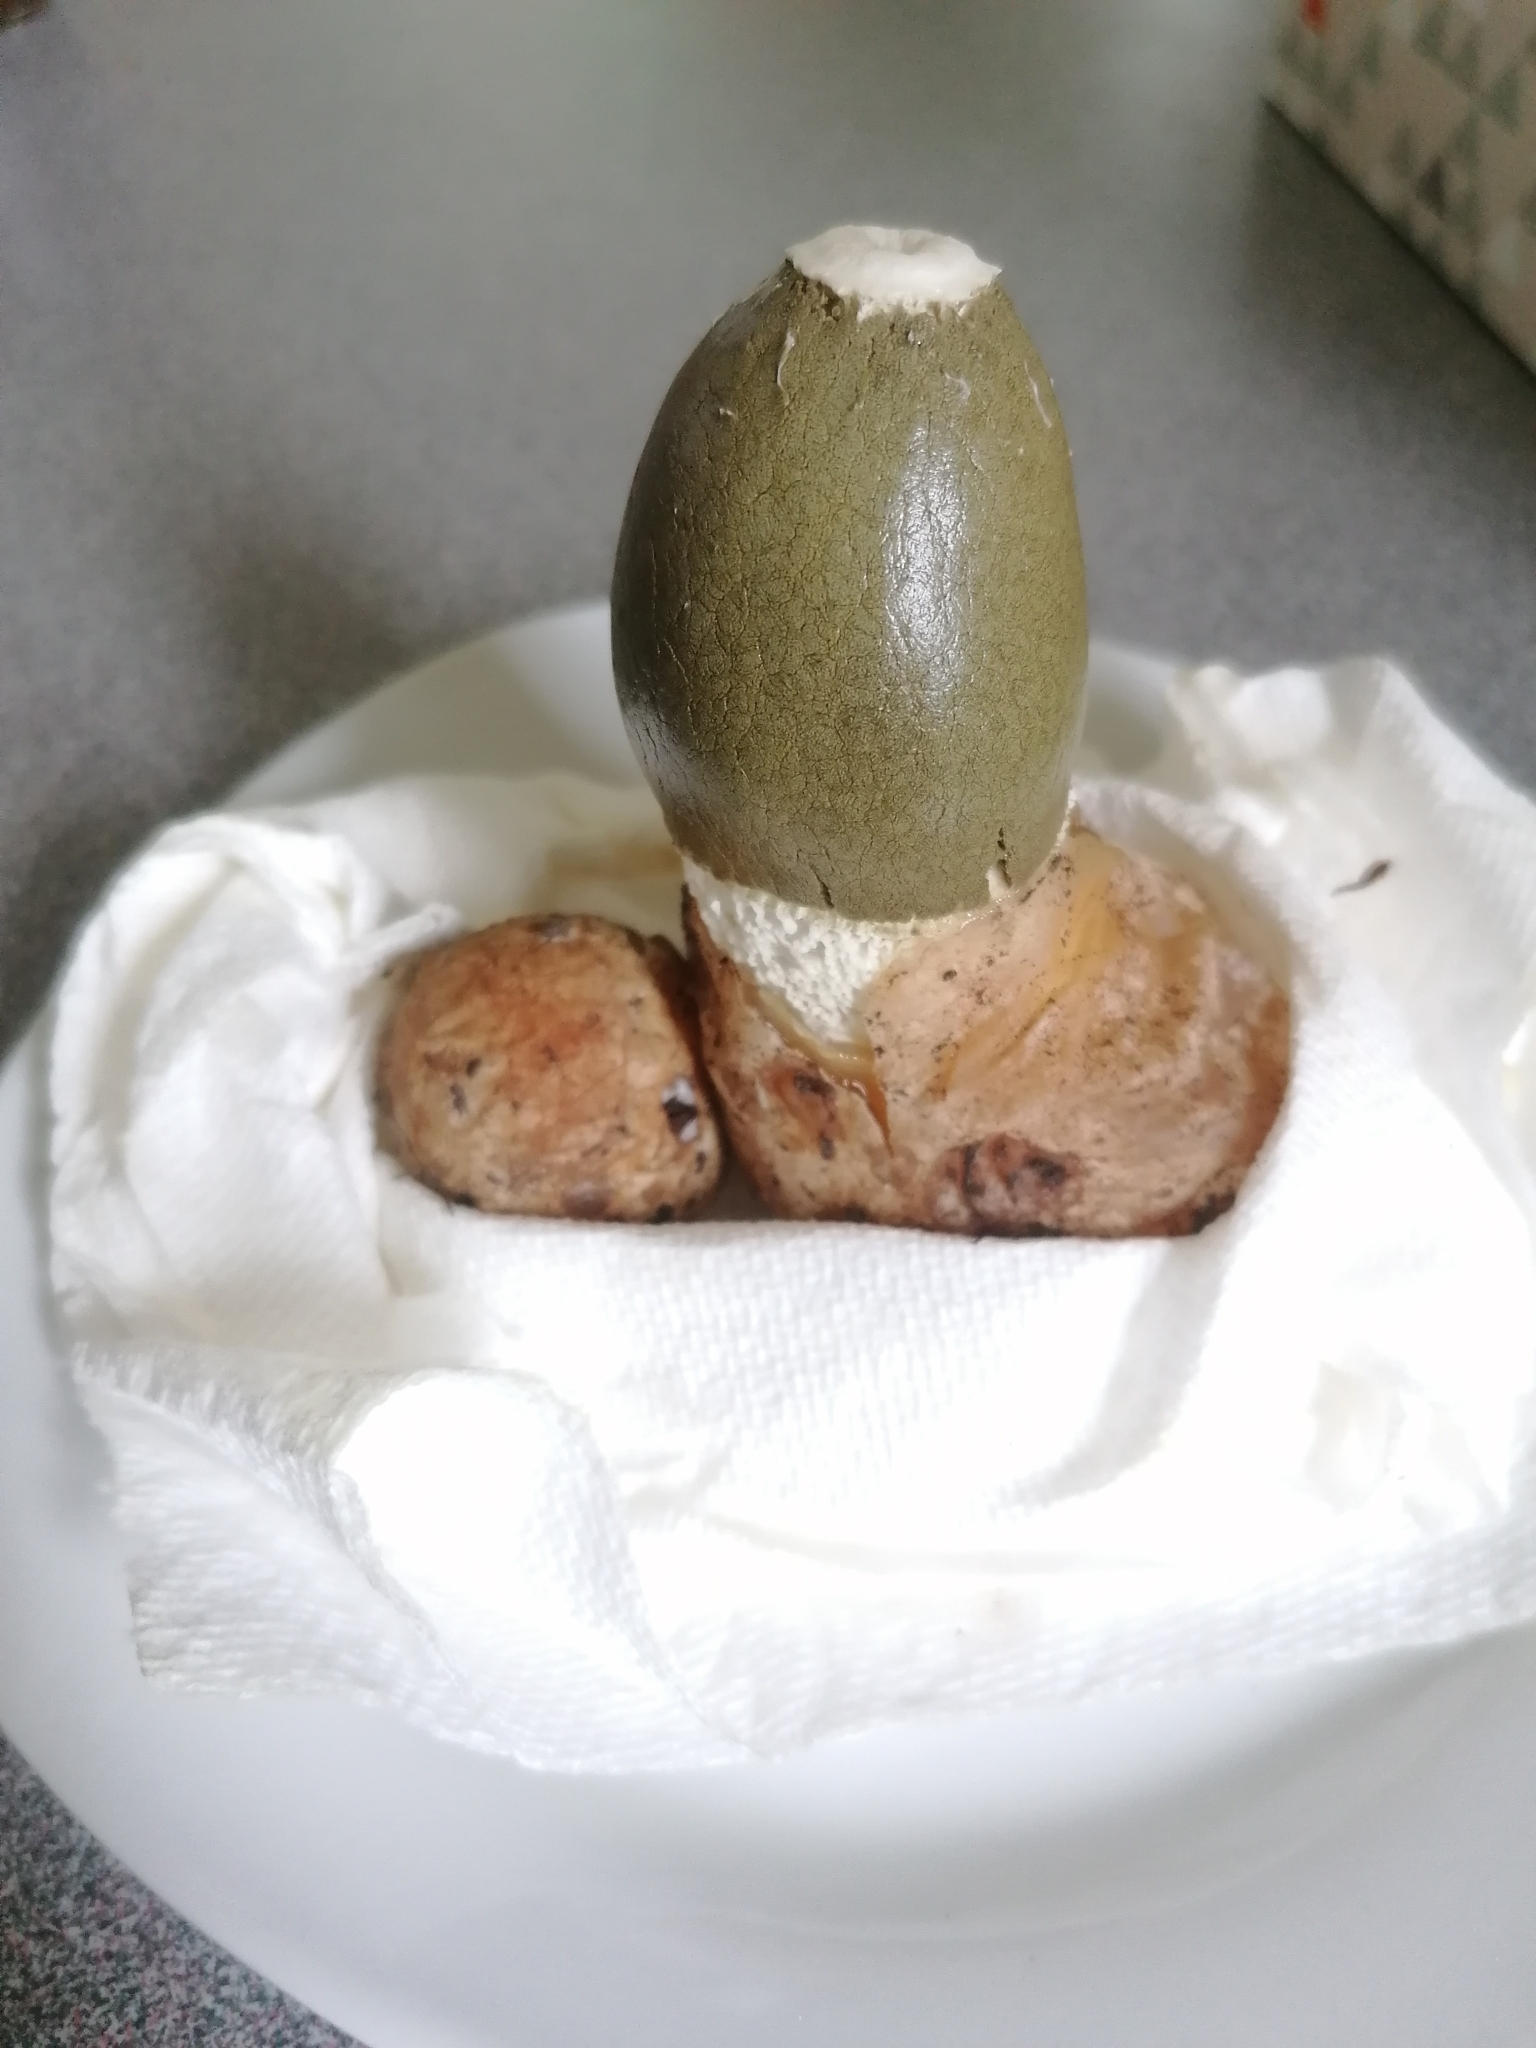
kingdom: Fungi
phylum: Basidiomycota
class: Agaricomycetes
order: Phallales
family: Phallaceae
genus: Phallus
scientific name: Phallus indusiatus
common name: Bridal veil stinkhorn
